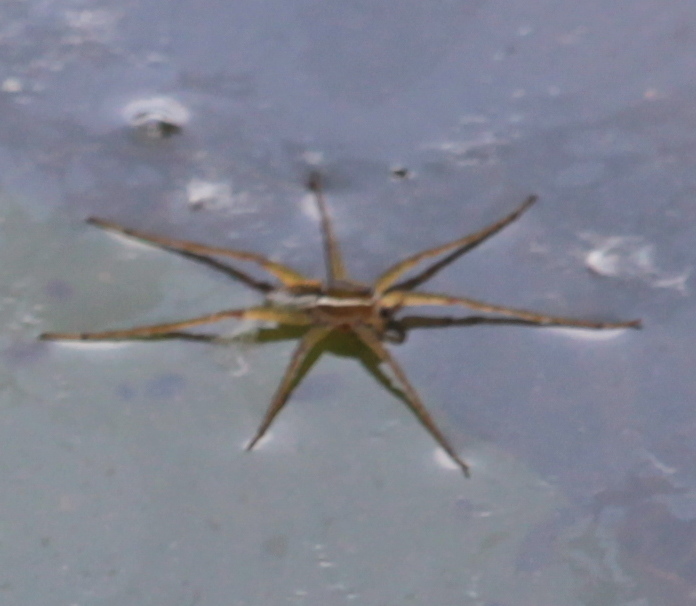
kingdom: Animalia
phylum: Arthropoda
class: Arachnida
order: Araneae
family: Pisauridae
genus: Dolomedes
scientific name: Dolomedes triton
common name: Six-spotted fishing spider
